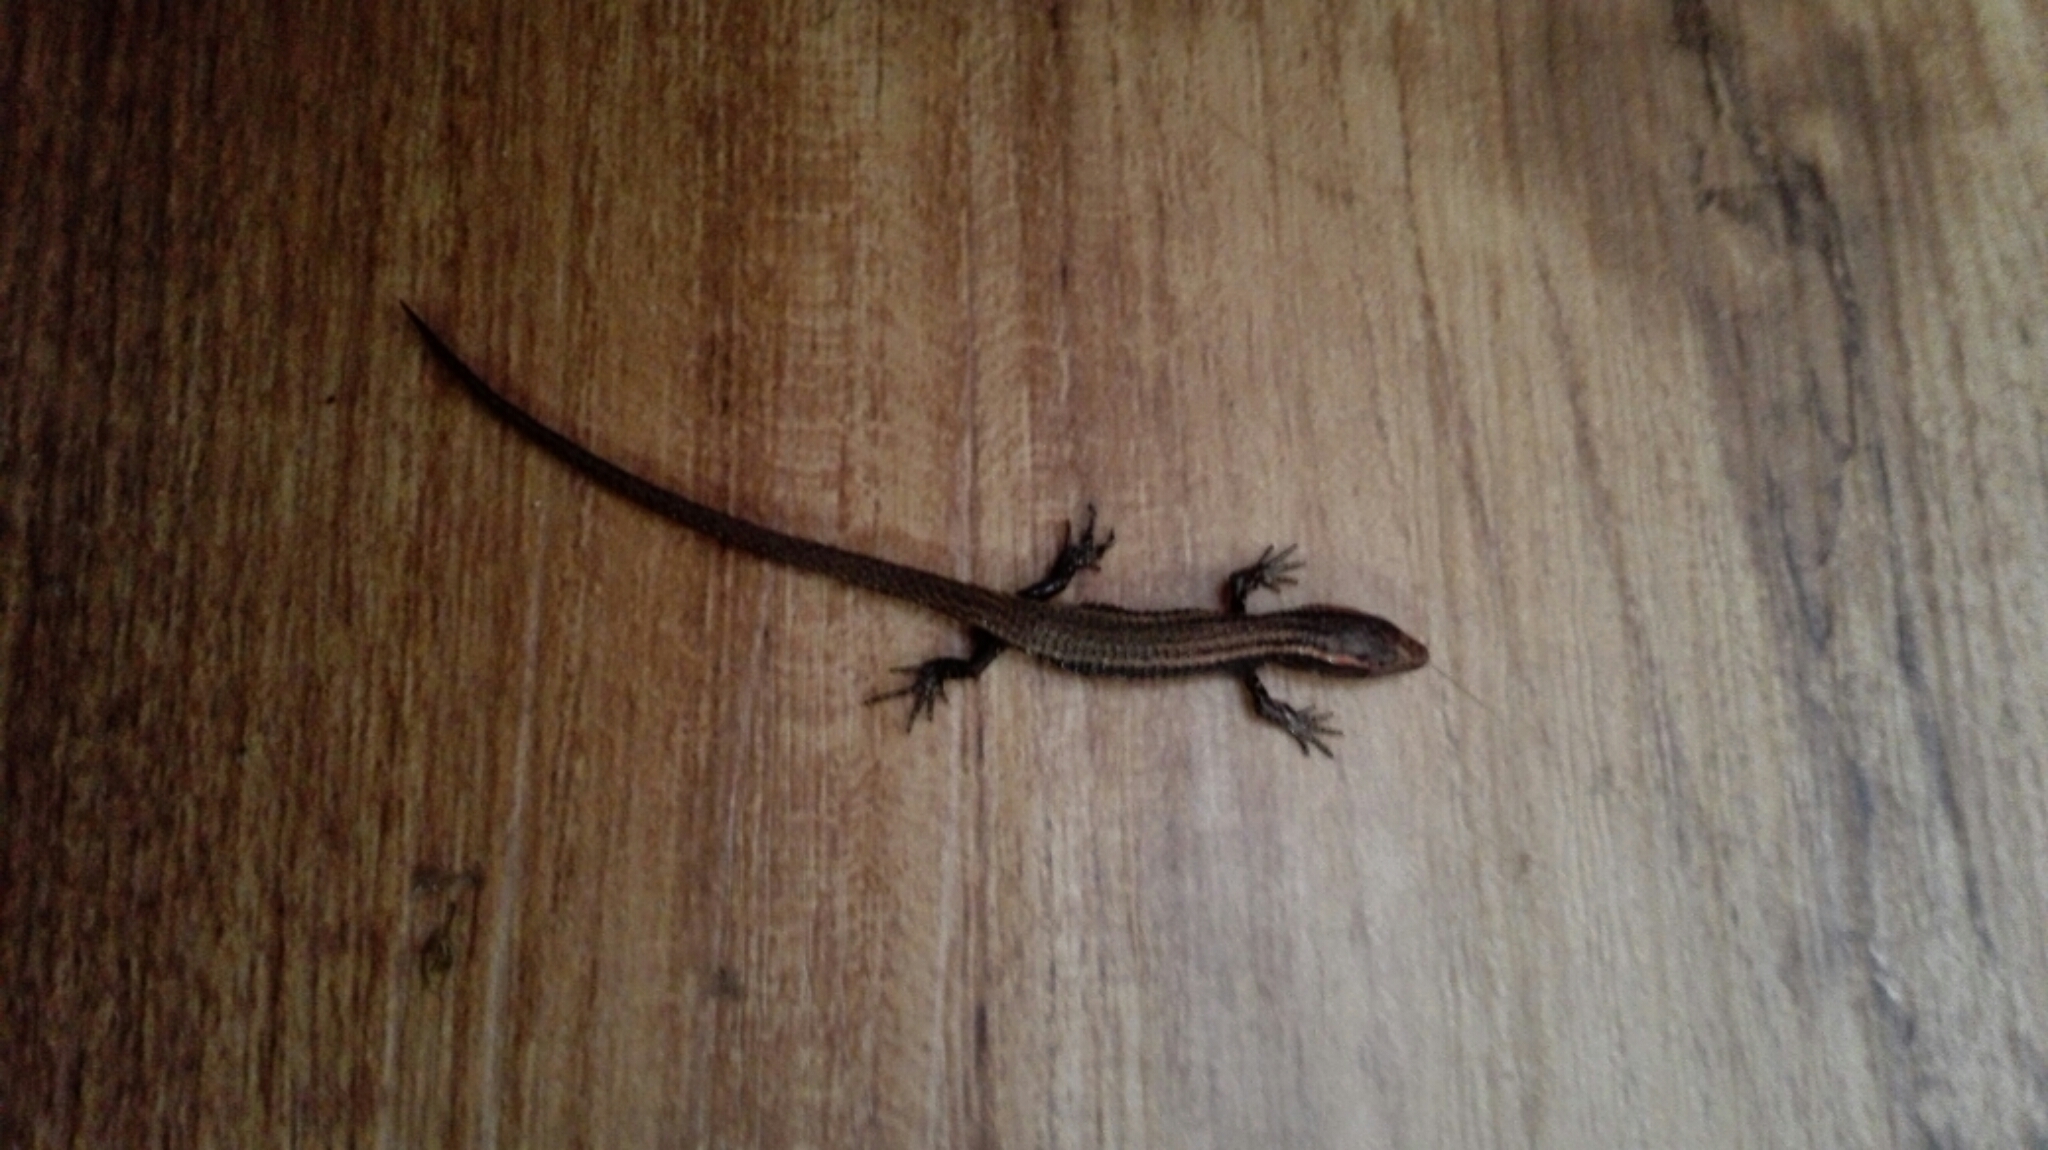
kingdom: Animalia
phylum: Chordata
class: Squamata
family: Gymnophthalmidae
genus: Riama
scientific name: Riama striata
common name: Striped lightbulb lizard
